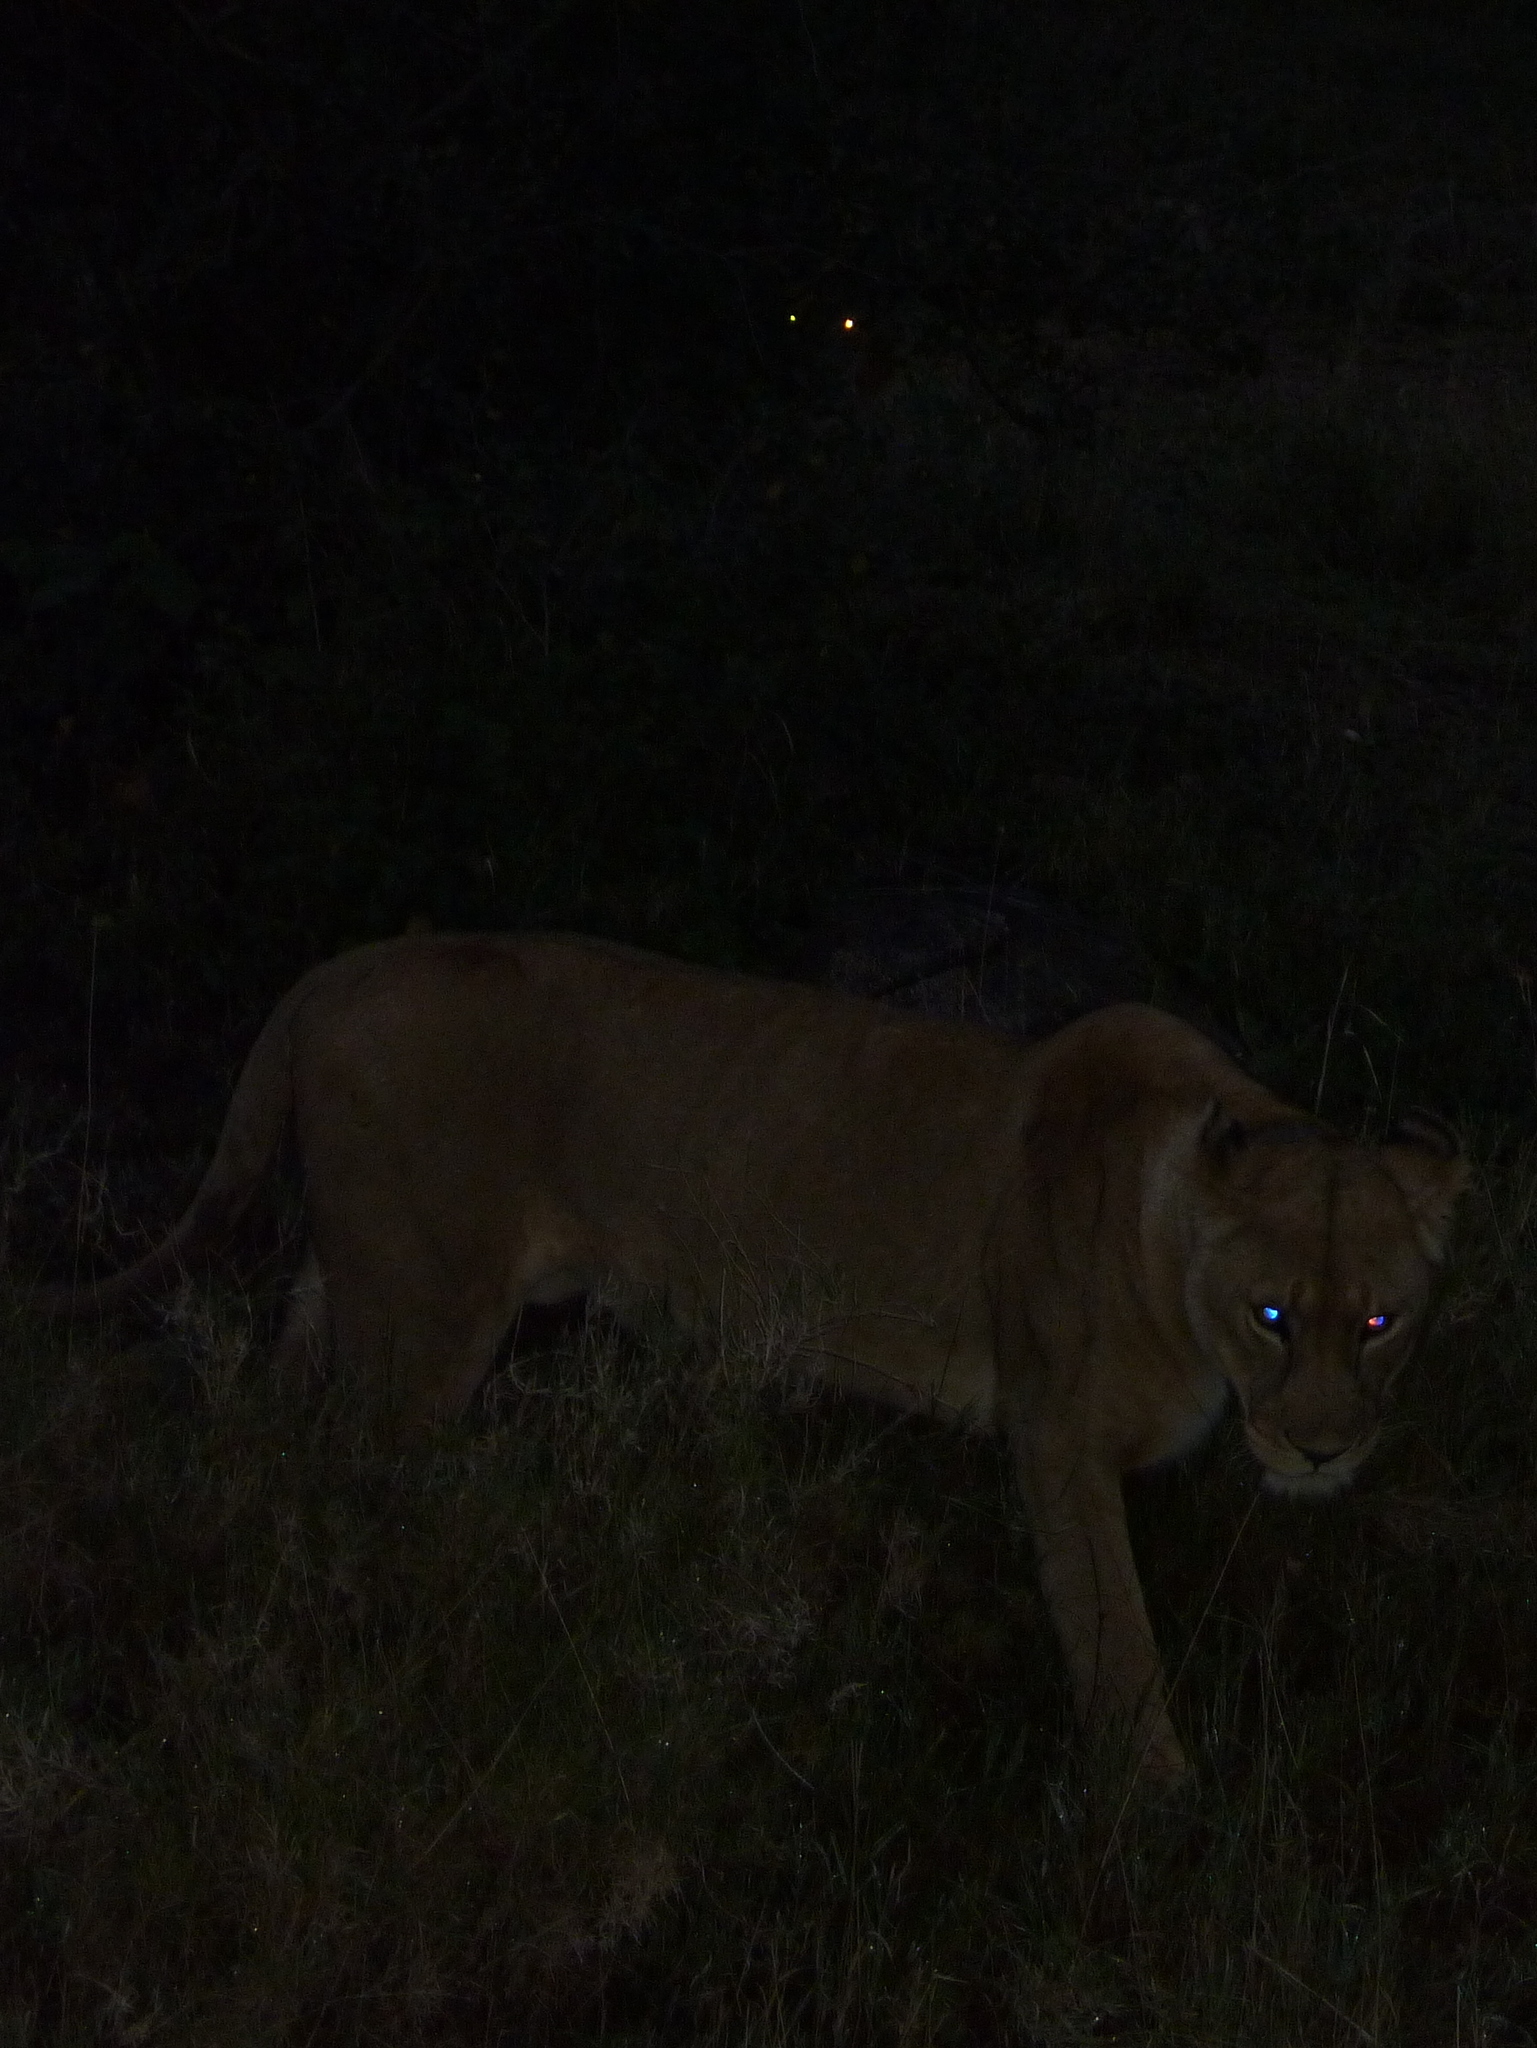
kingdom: Animalia
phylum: Chordata
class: Mammalia
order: Carnivora
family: Felidae
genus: Panthera
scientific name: Panthera leo
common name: Lion
